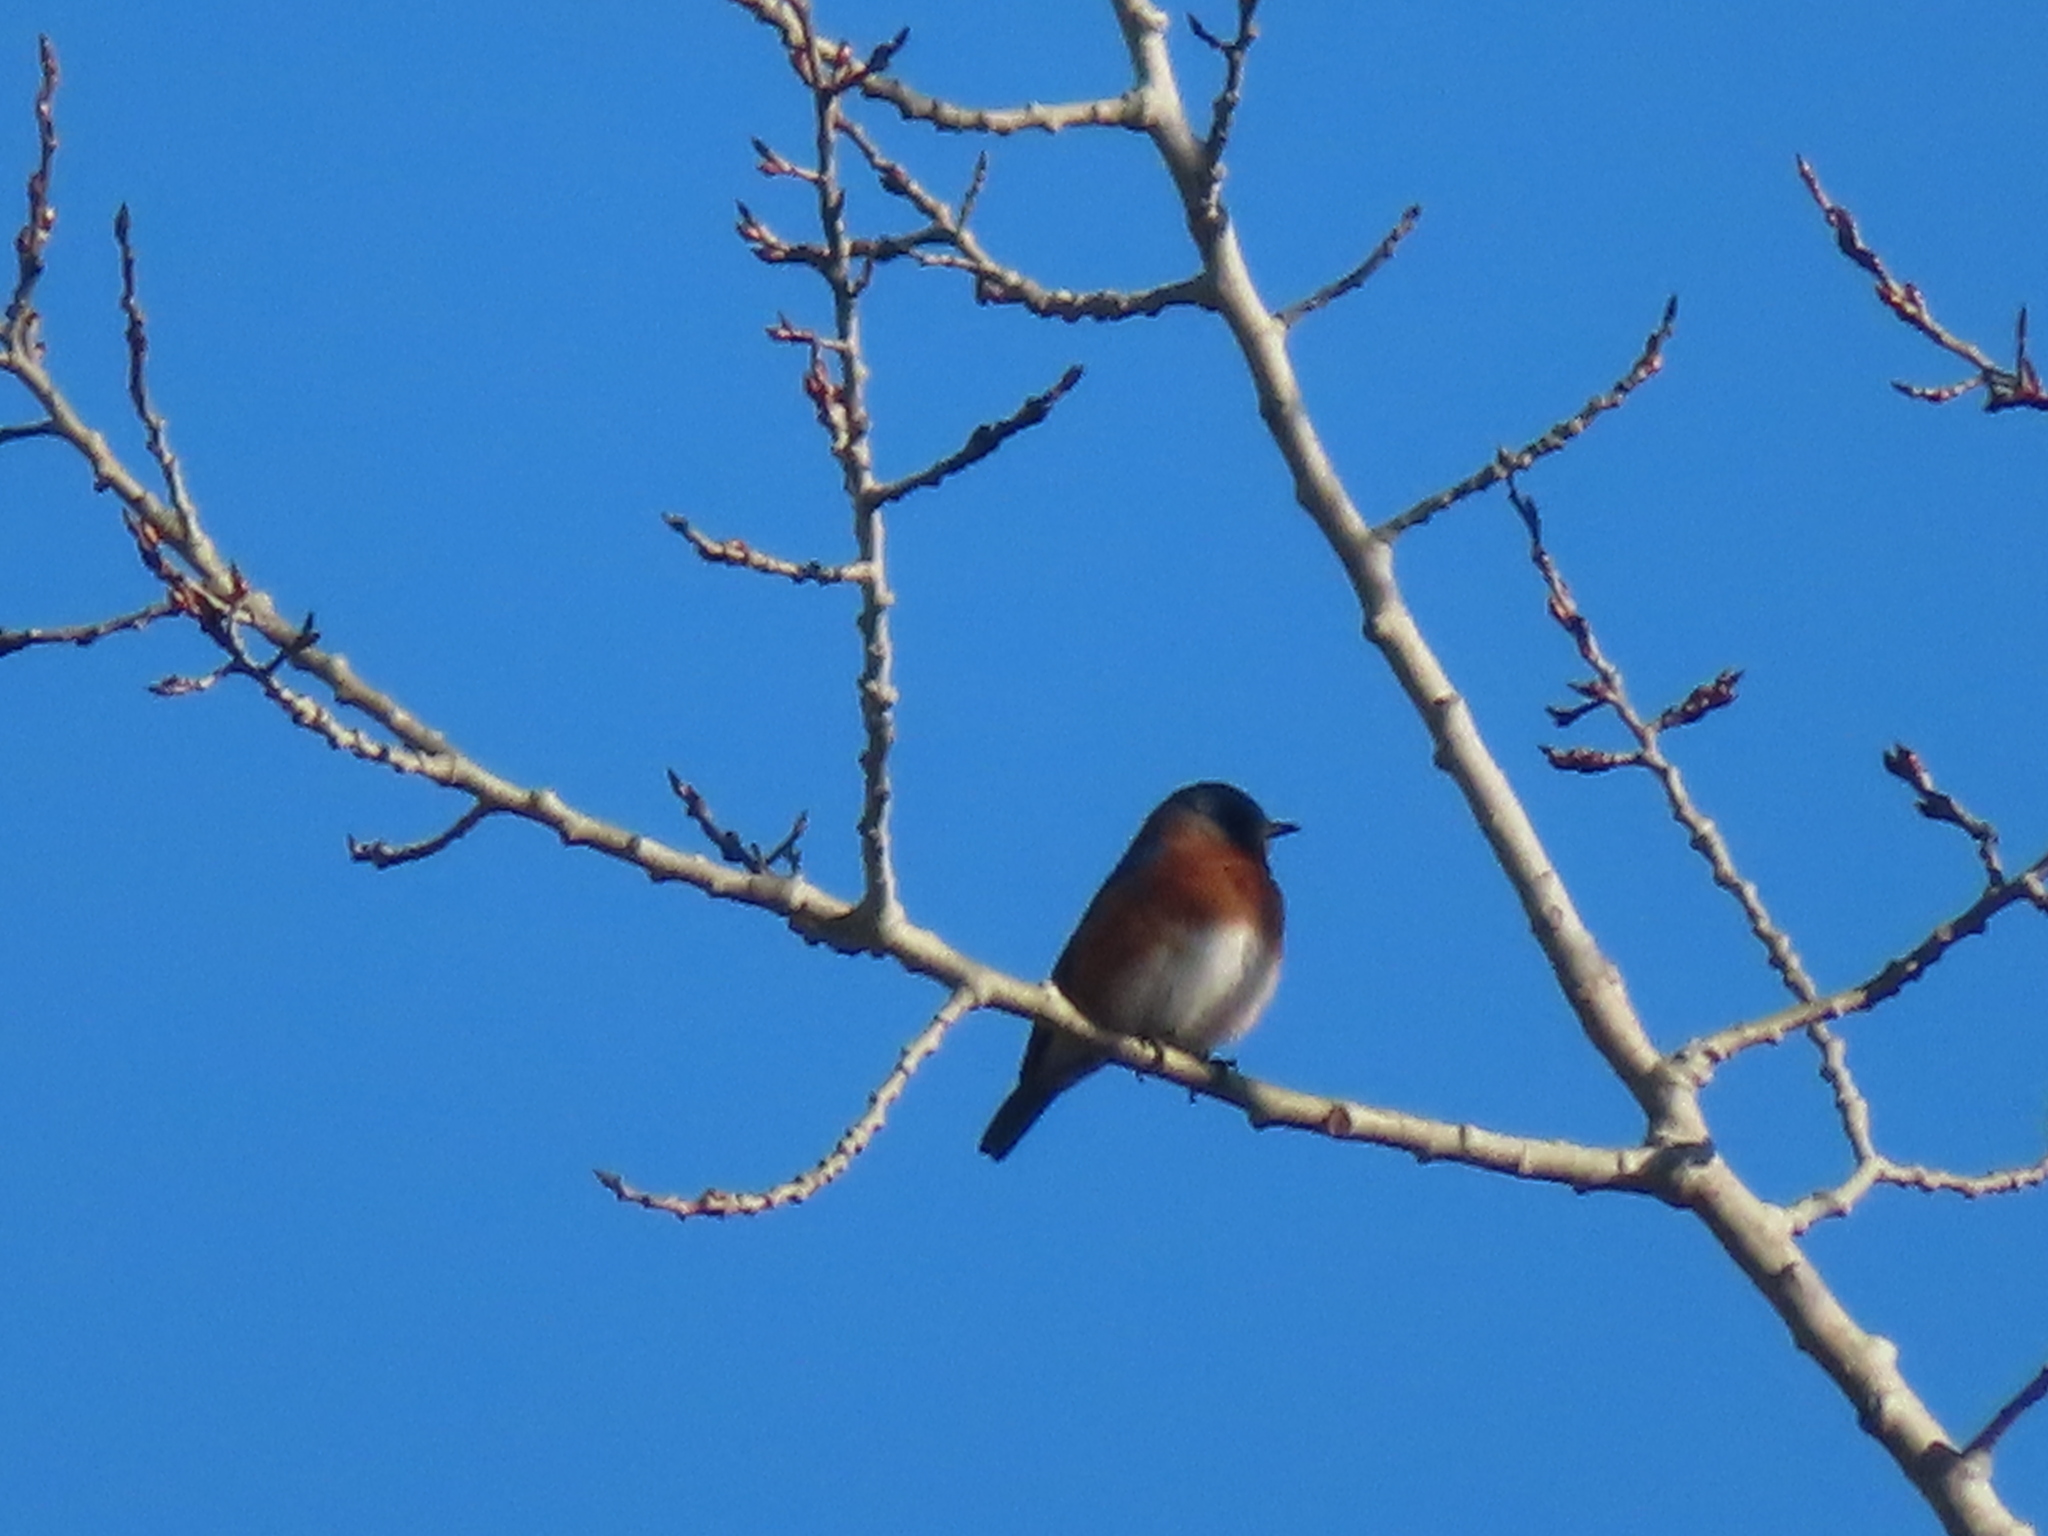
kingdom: Animalia
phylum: Chordata
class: Aves
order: Passeriformes
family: Turdidae
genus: Sialia
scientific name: Sialia sialis
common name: Eastern bluebird
